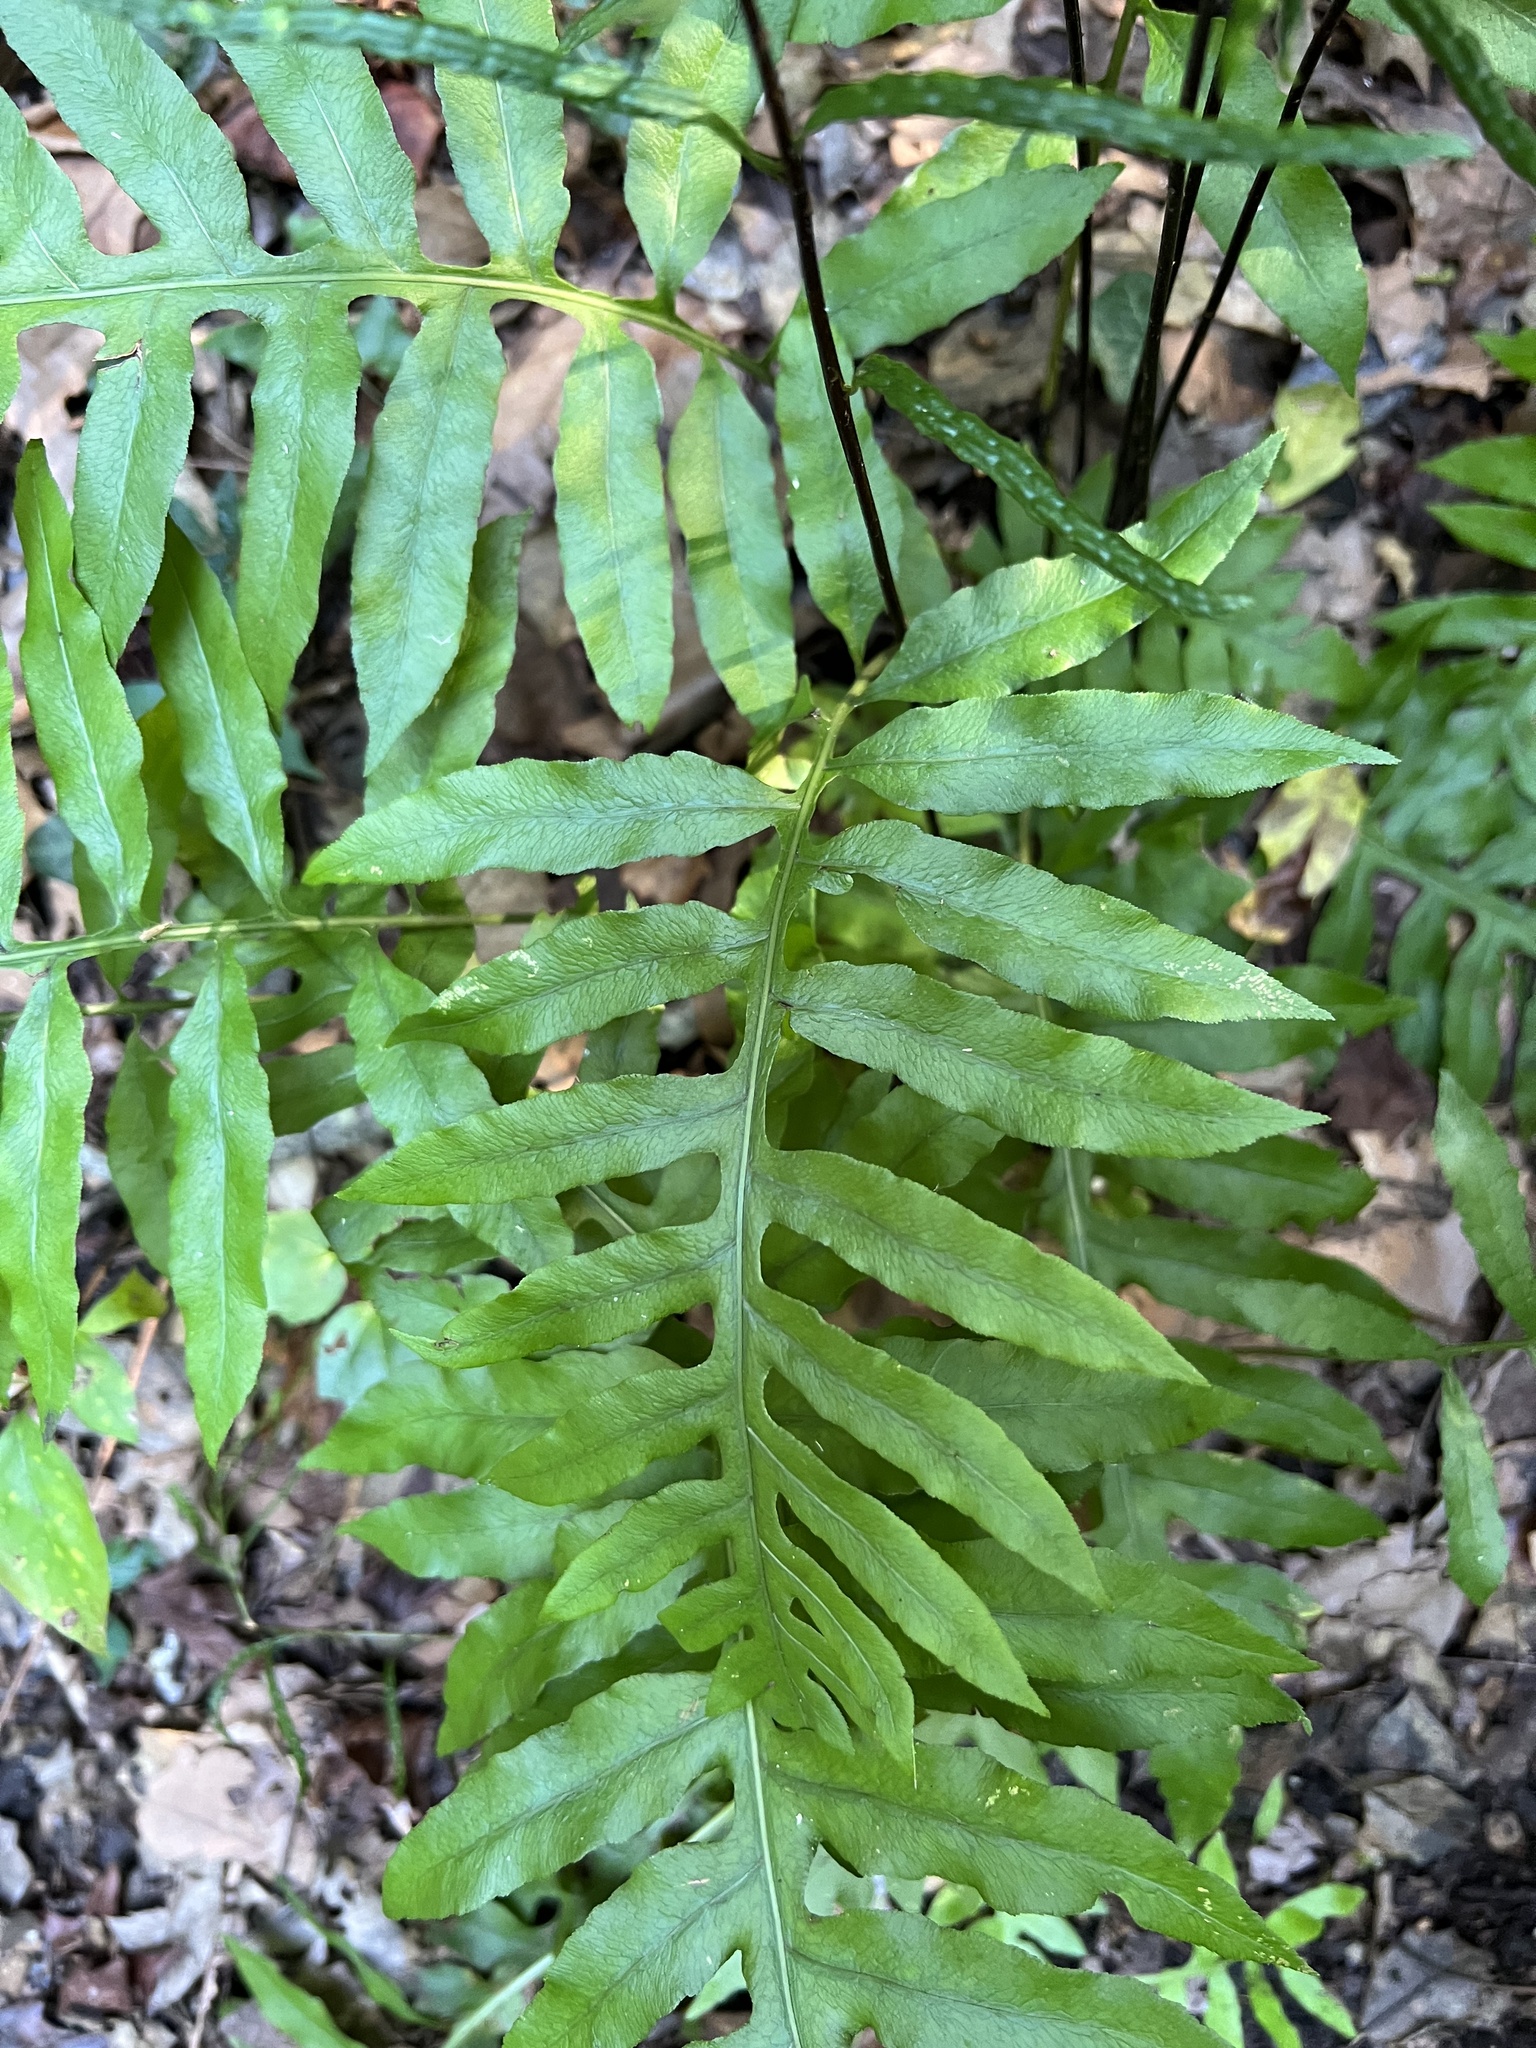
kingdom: Plantae
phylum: Tracheophyta
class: Polypodiopsida
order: Polypodiales
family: Blechnaceae
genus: Lorinseria
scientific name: Lorinseria areolata
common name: Dwarf chain fern
